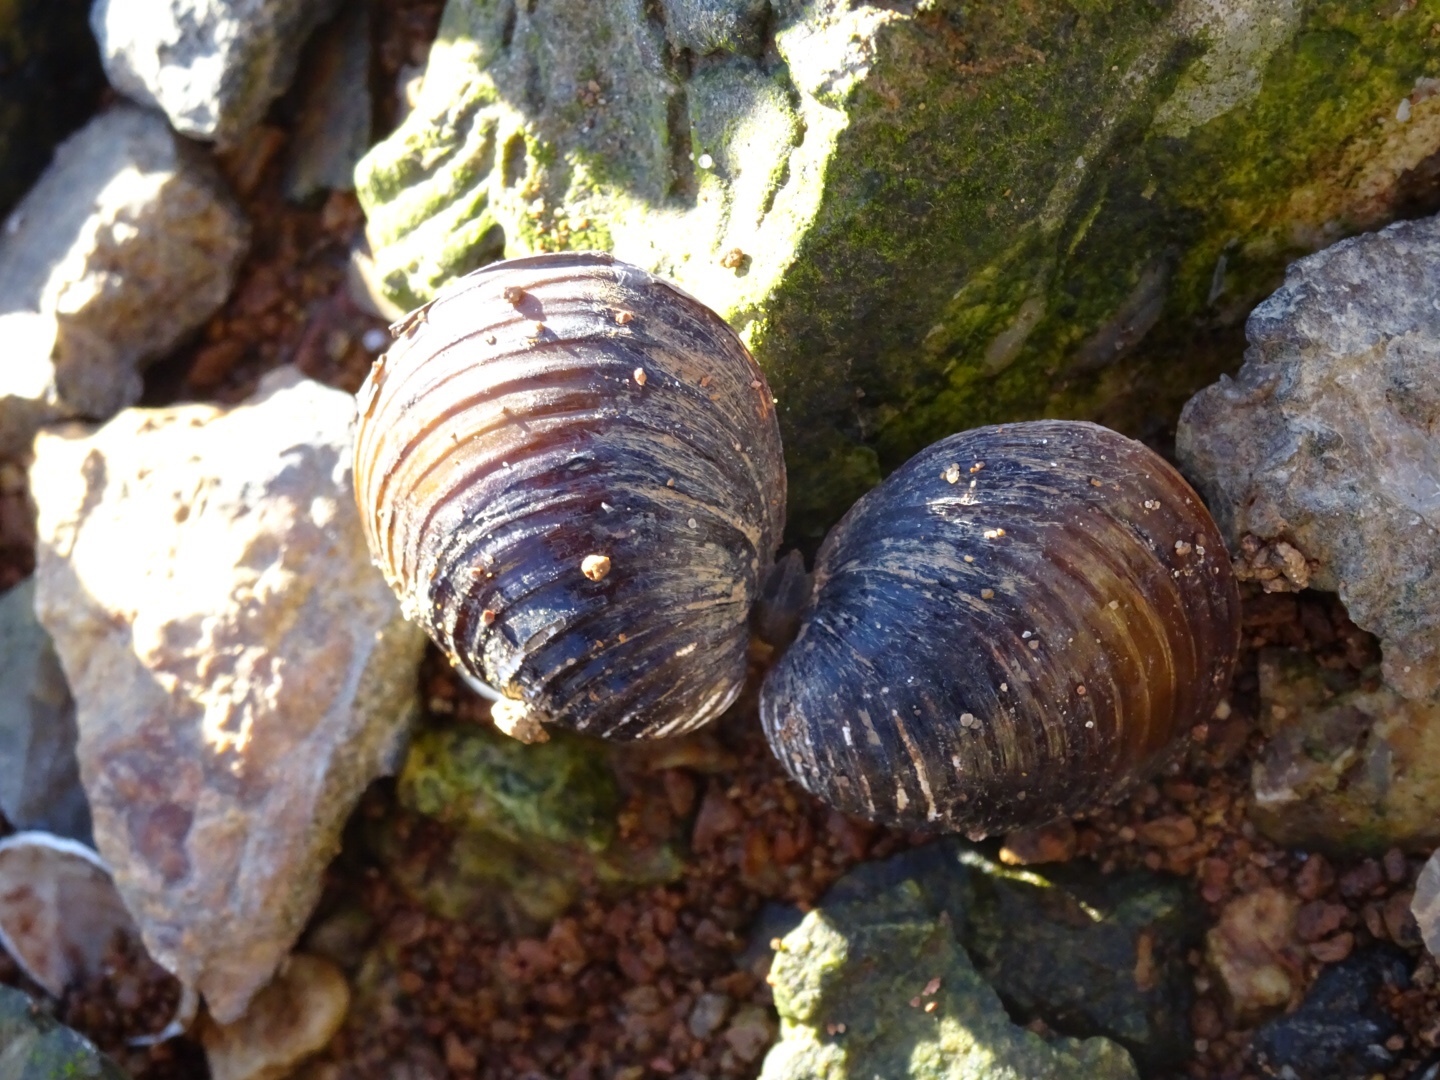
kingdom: Animalia
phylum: Mollusca
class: Bivalvia
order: Venerida
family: Cyrenidae
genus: Corbicula
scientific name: Corbicula fluminea
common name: Asian clam
